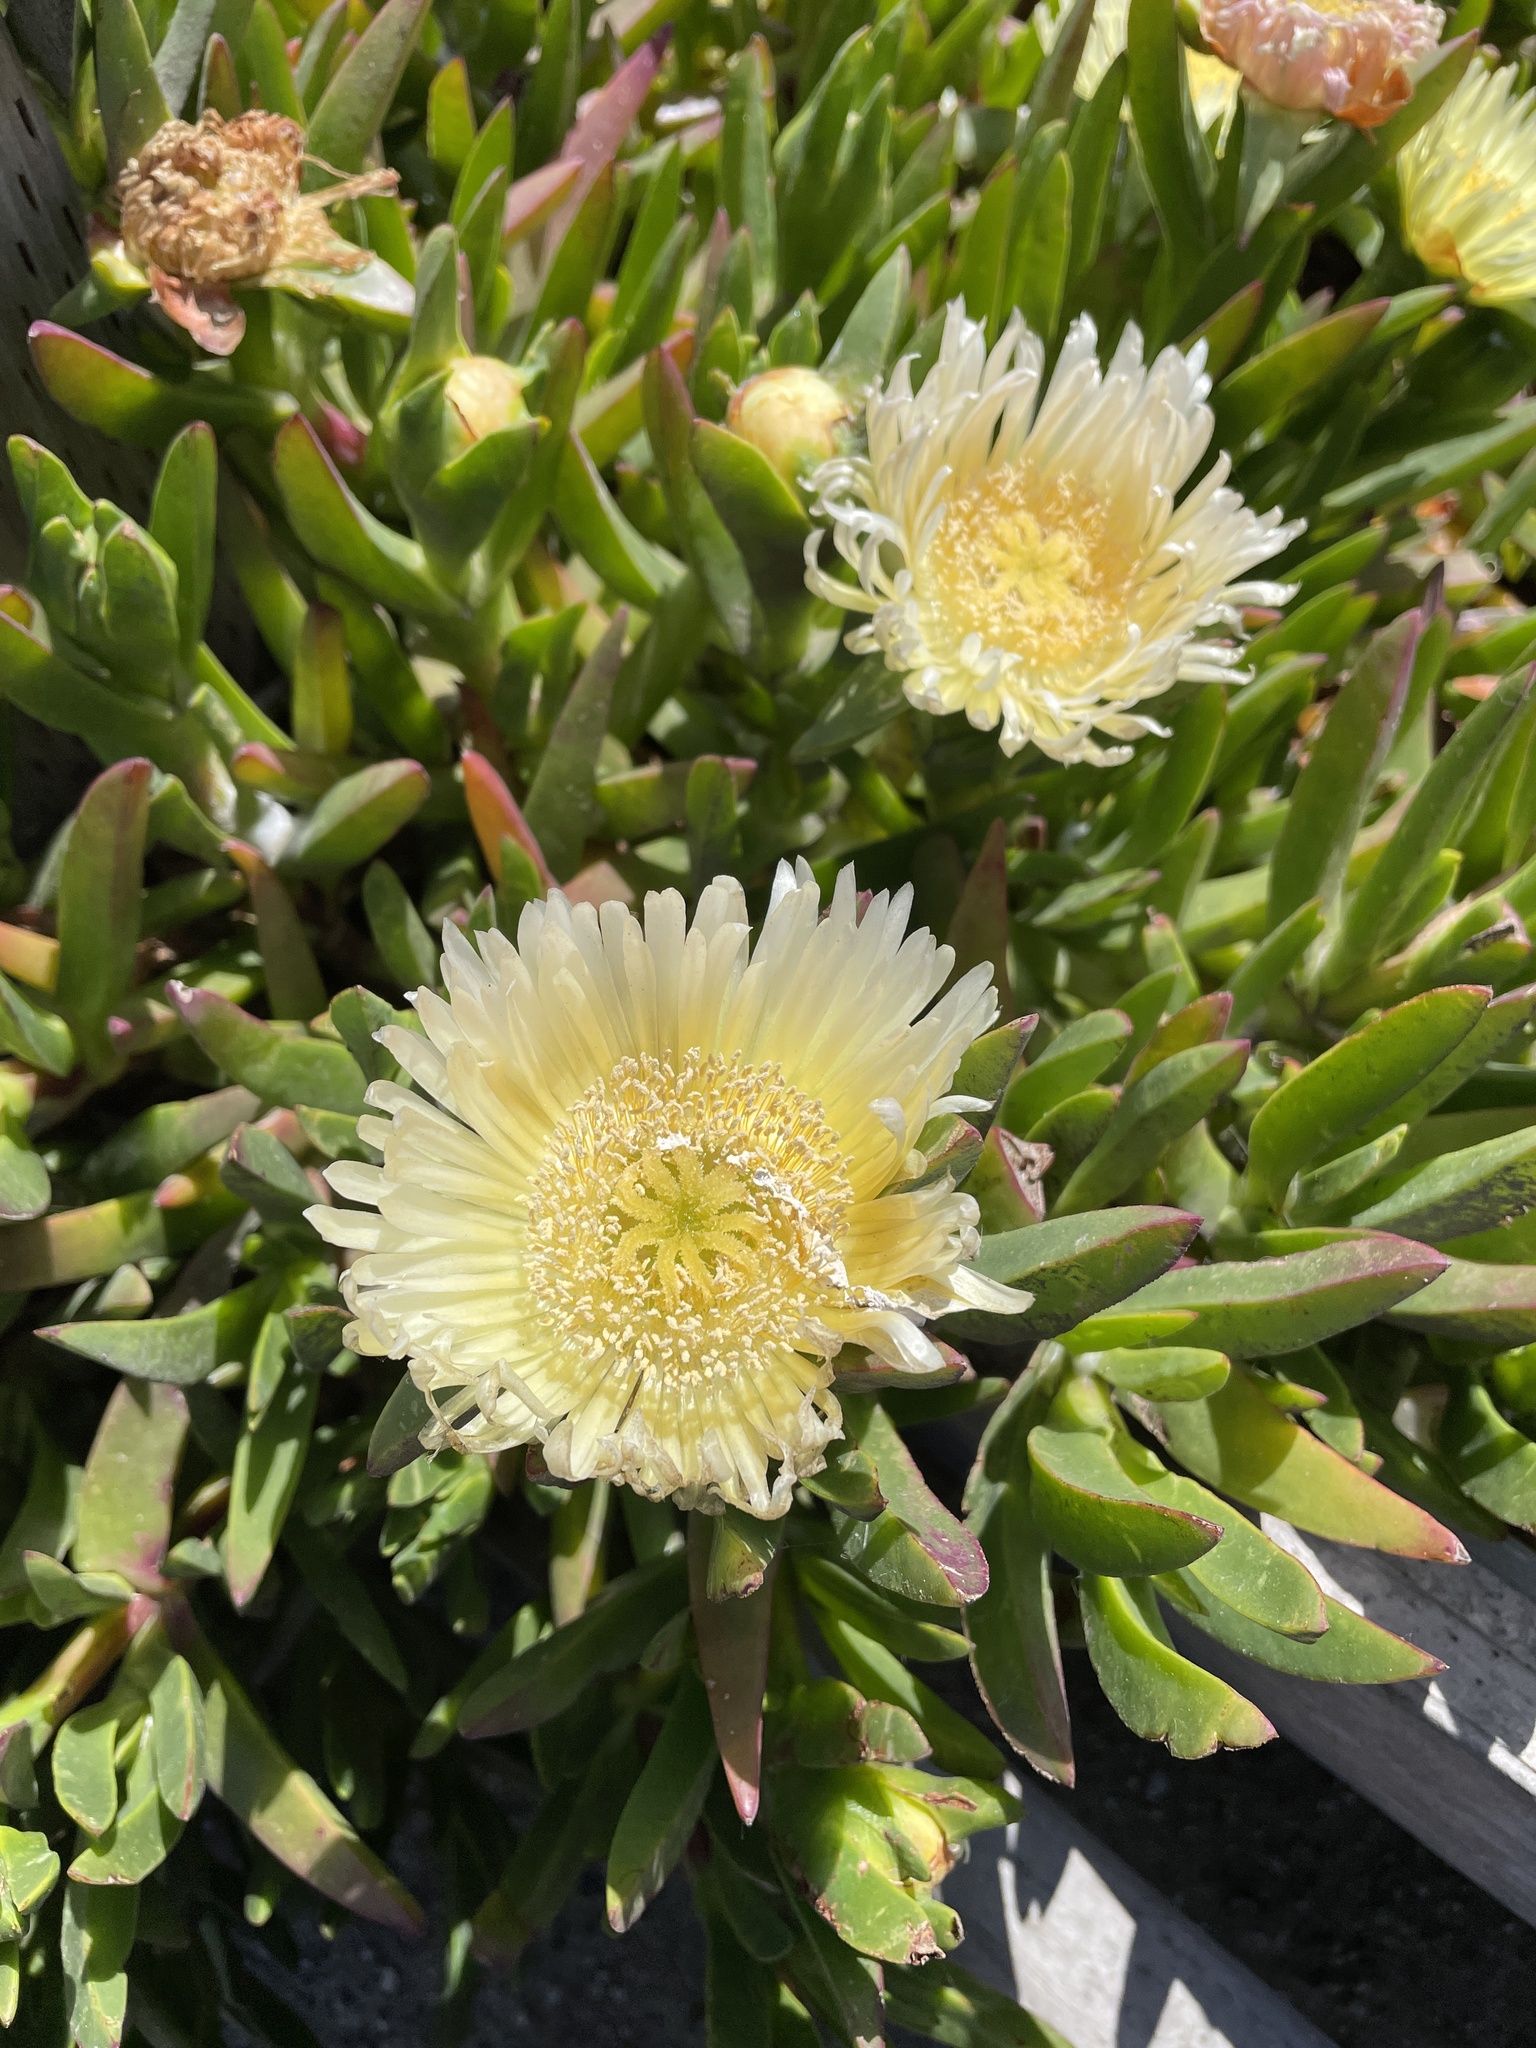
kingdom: Plantae
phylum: Tracheophyta
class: Magnoliopsida
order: Caryophyllales
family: Aizoaceae
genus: Carpobrotus
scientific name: Carpobrotus edulis
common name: Hottentot-fig
